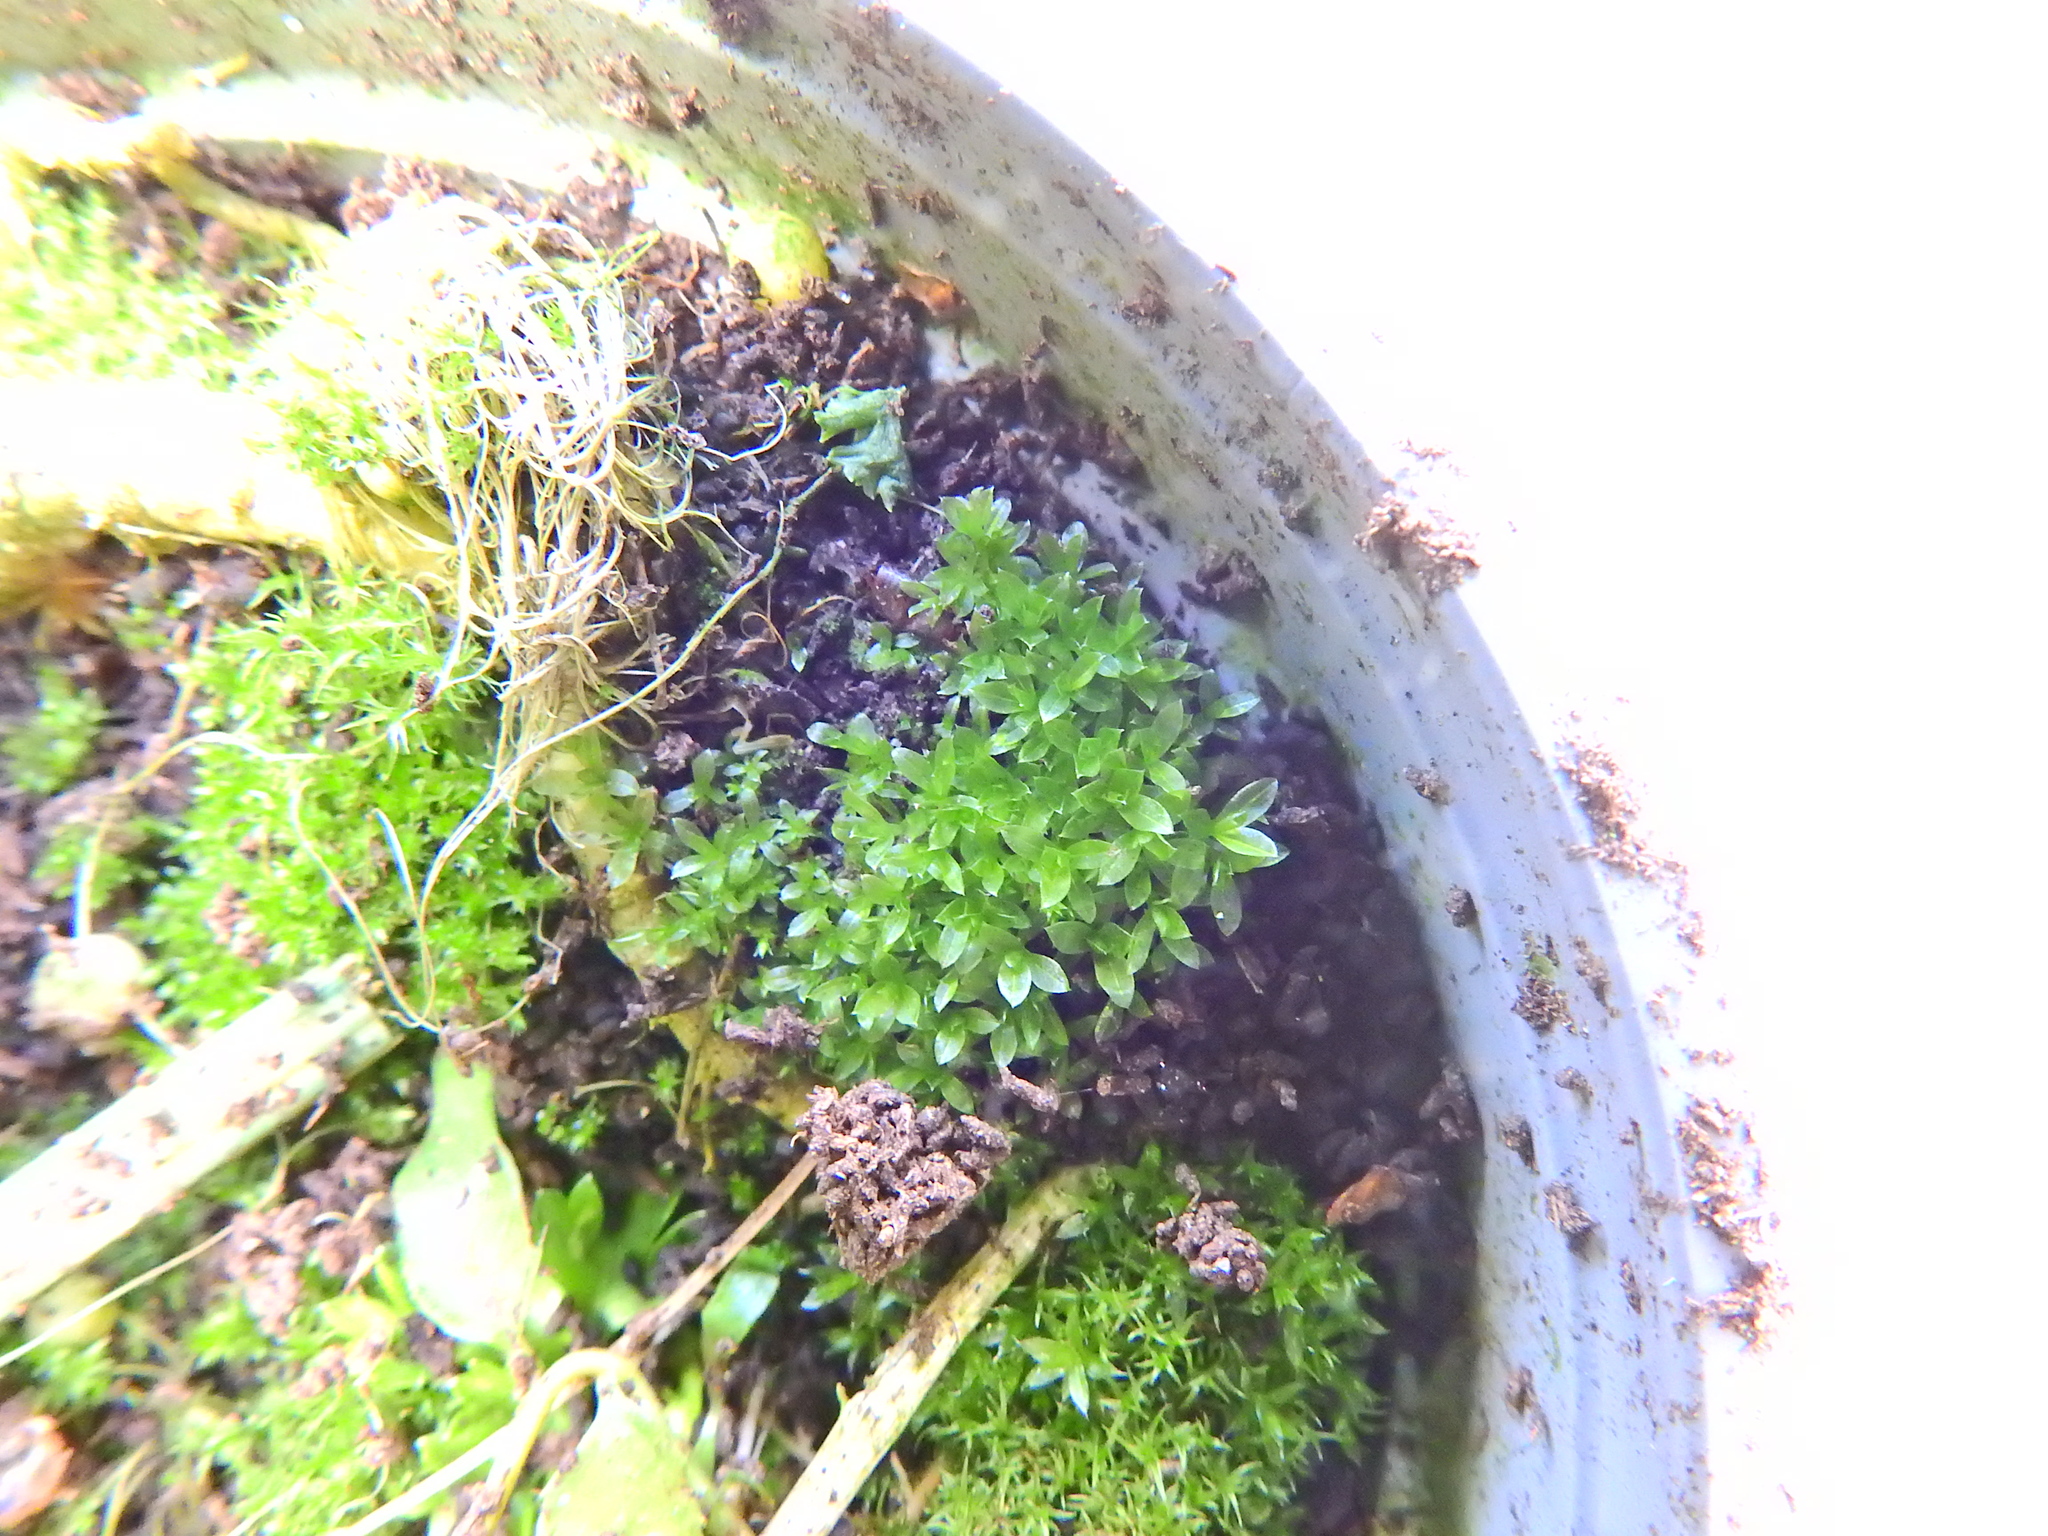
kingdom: Plantae
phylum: Bryophyta
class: Bryopsida
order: Funariales
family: Funariaceae
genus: Funaria
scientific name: Funaria hygrometrica
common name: Common cord moss
